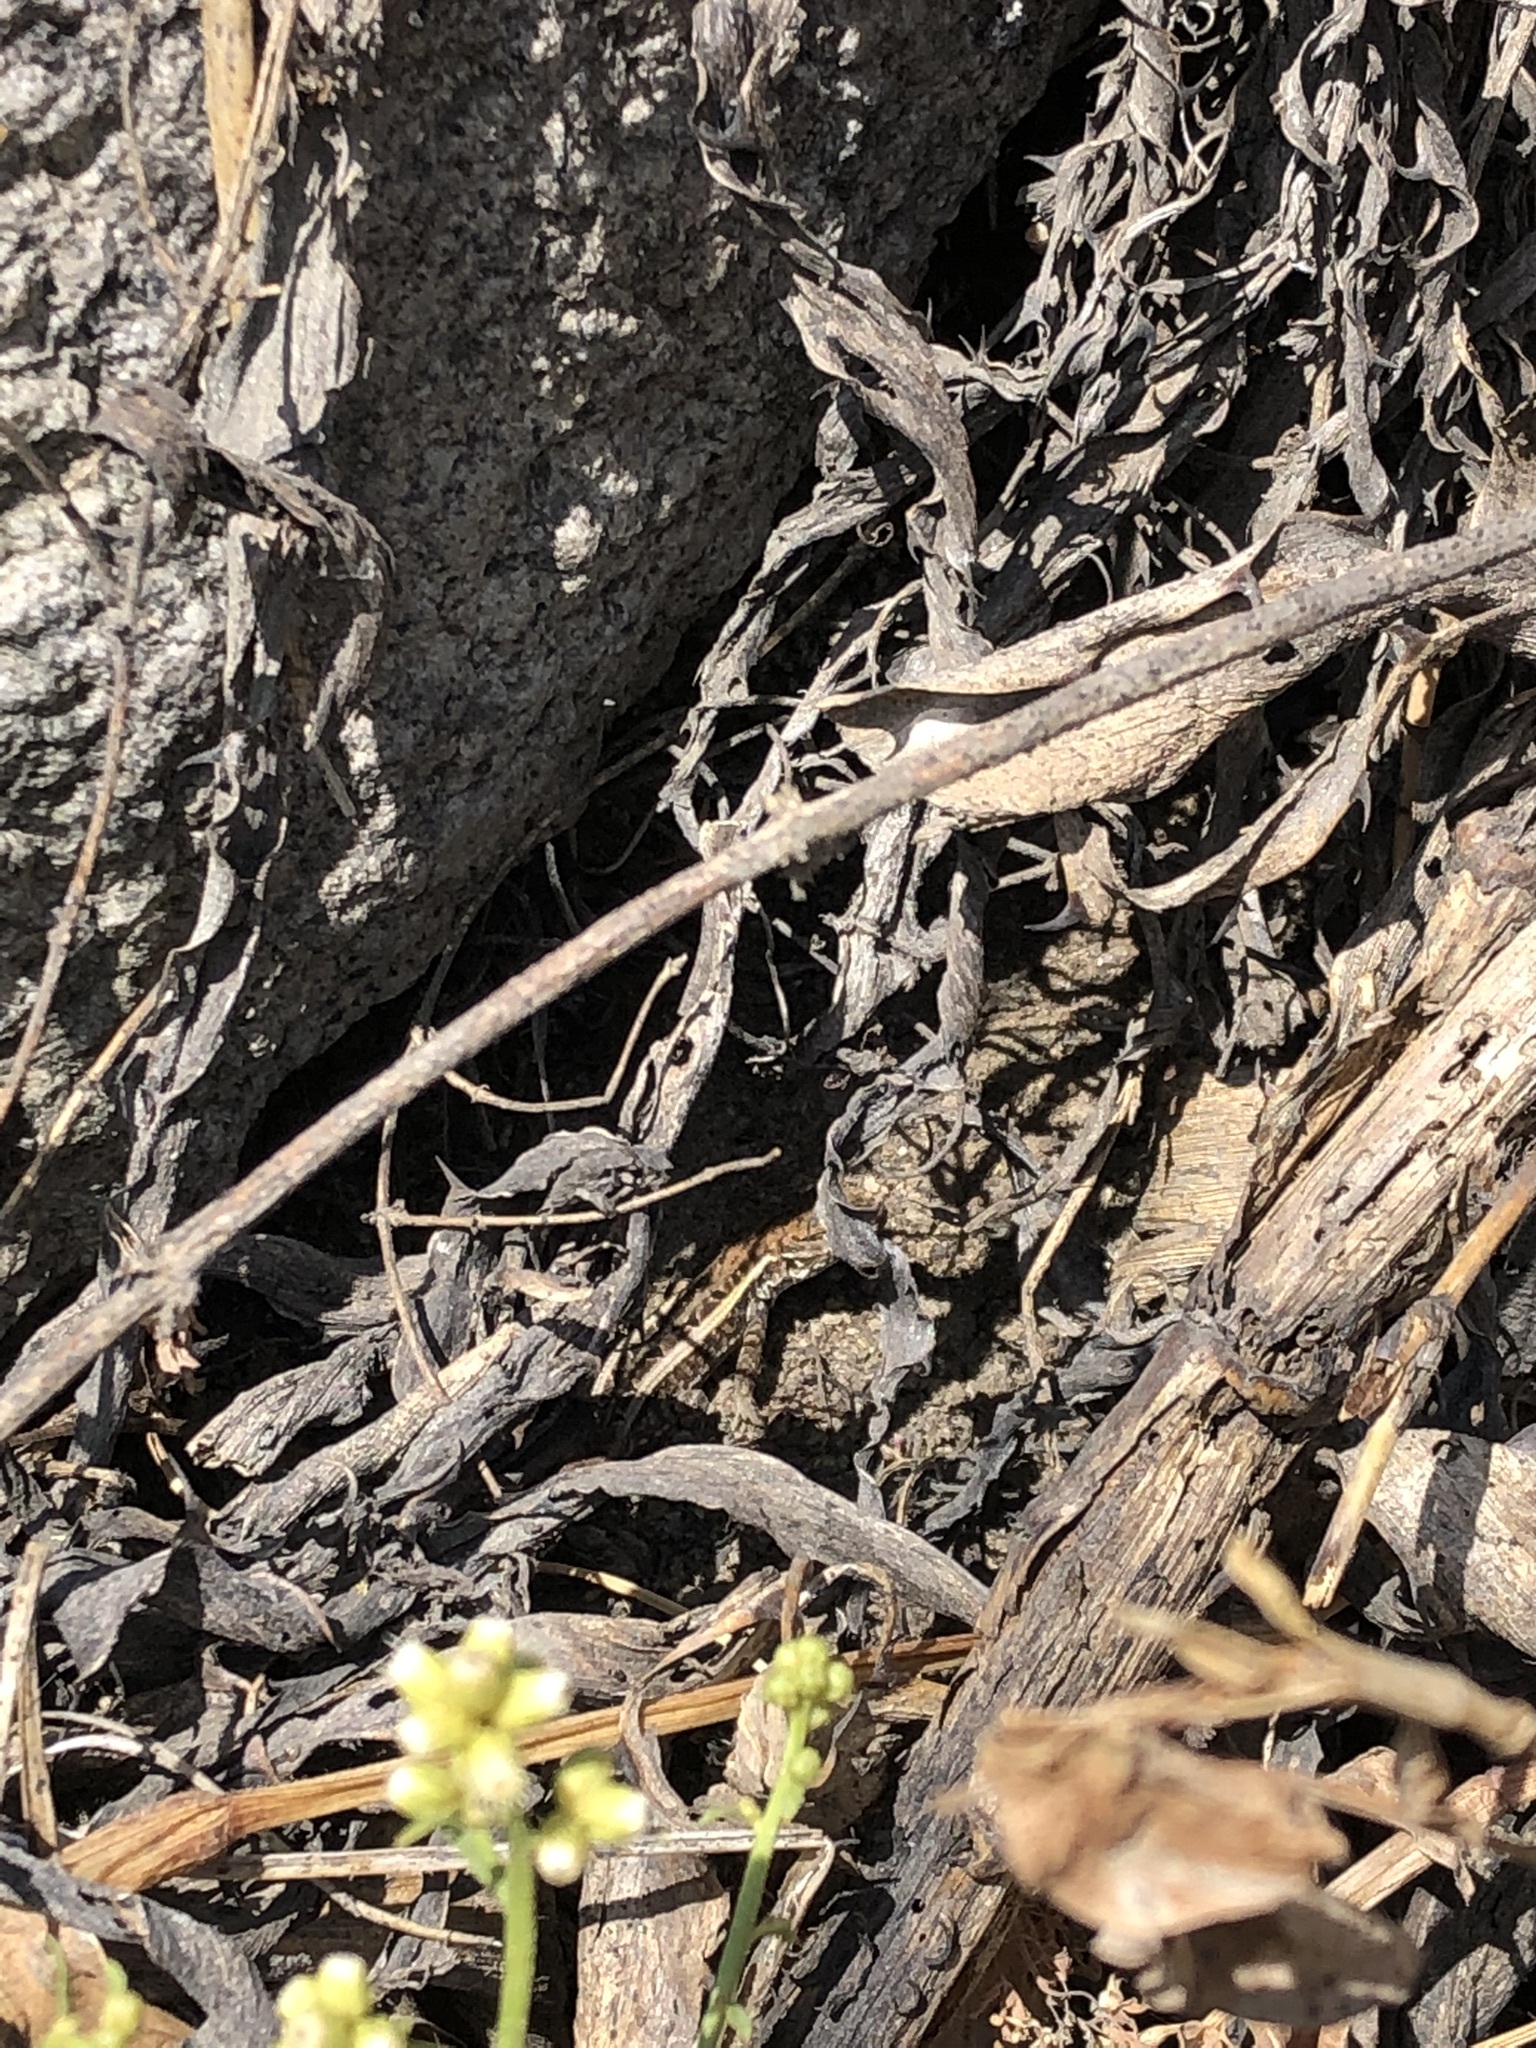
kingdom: Animalia
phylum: Chordata
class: Squamata
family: Tropiduridae
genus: Stenocercus
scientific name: Stenocercus ornatissimus
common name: Lesser ornate whorltail iguana
